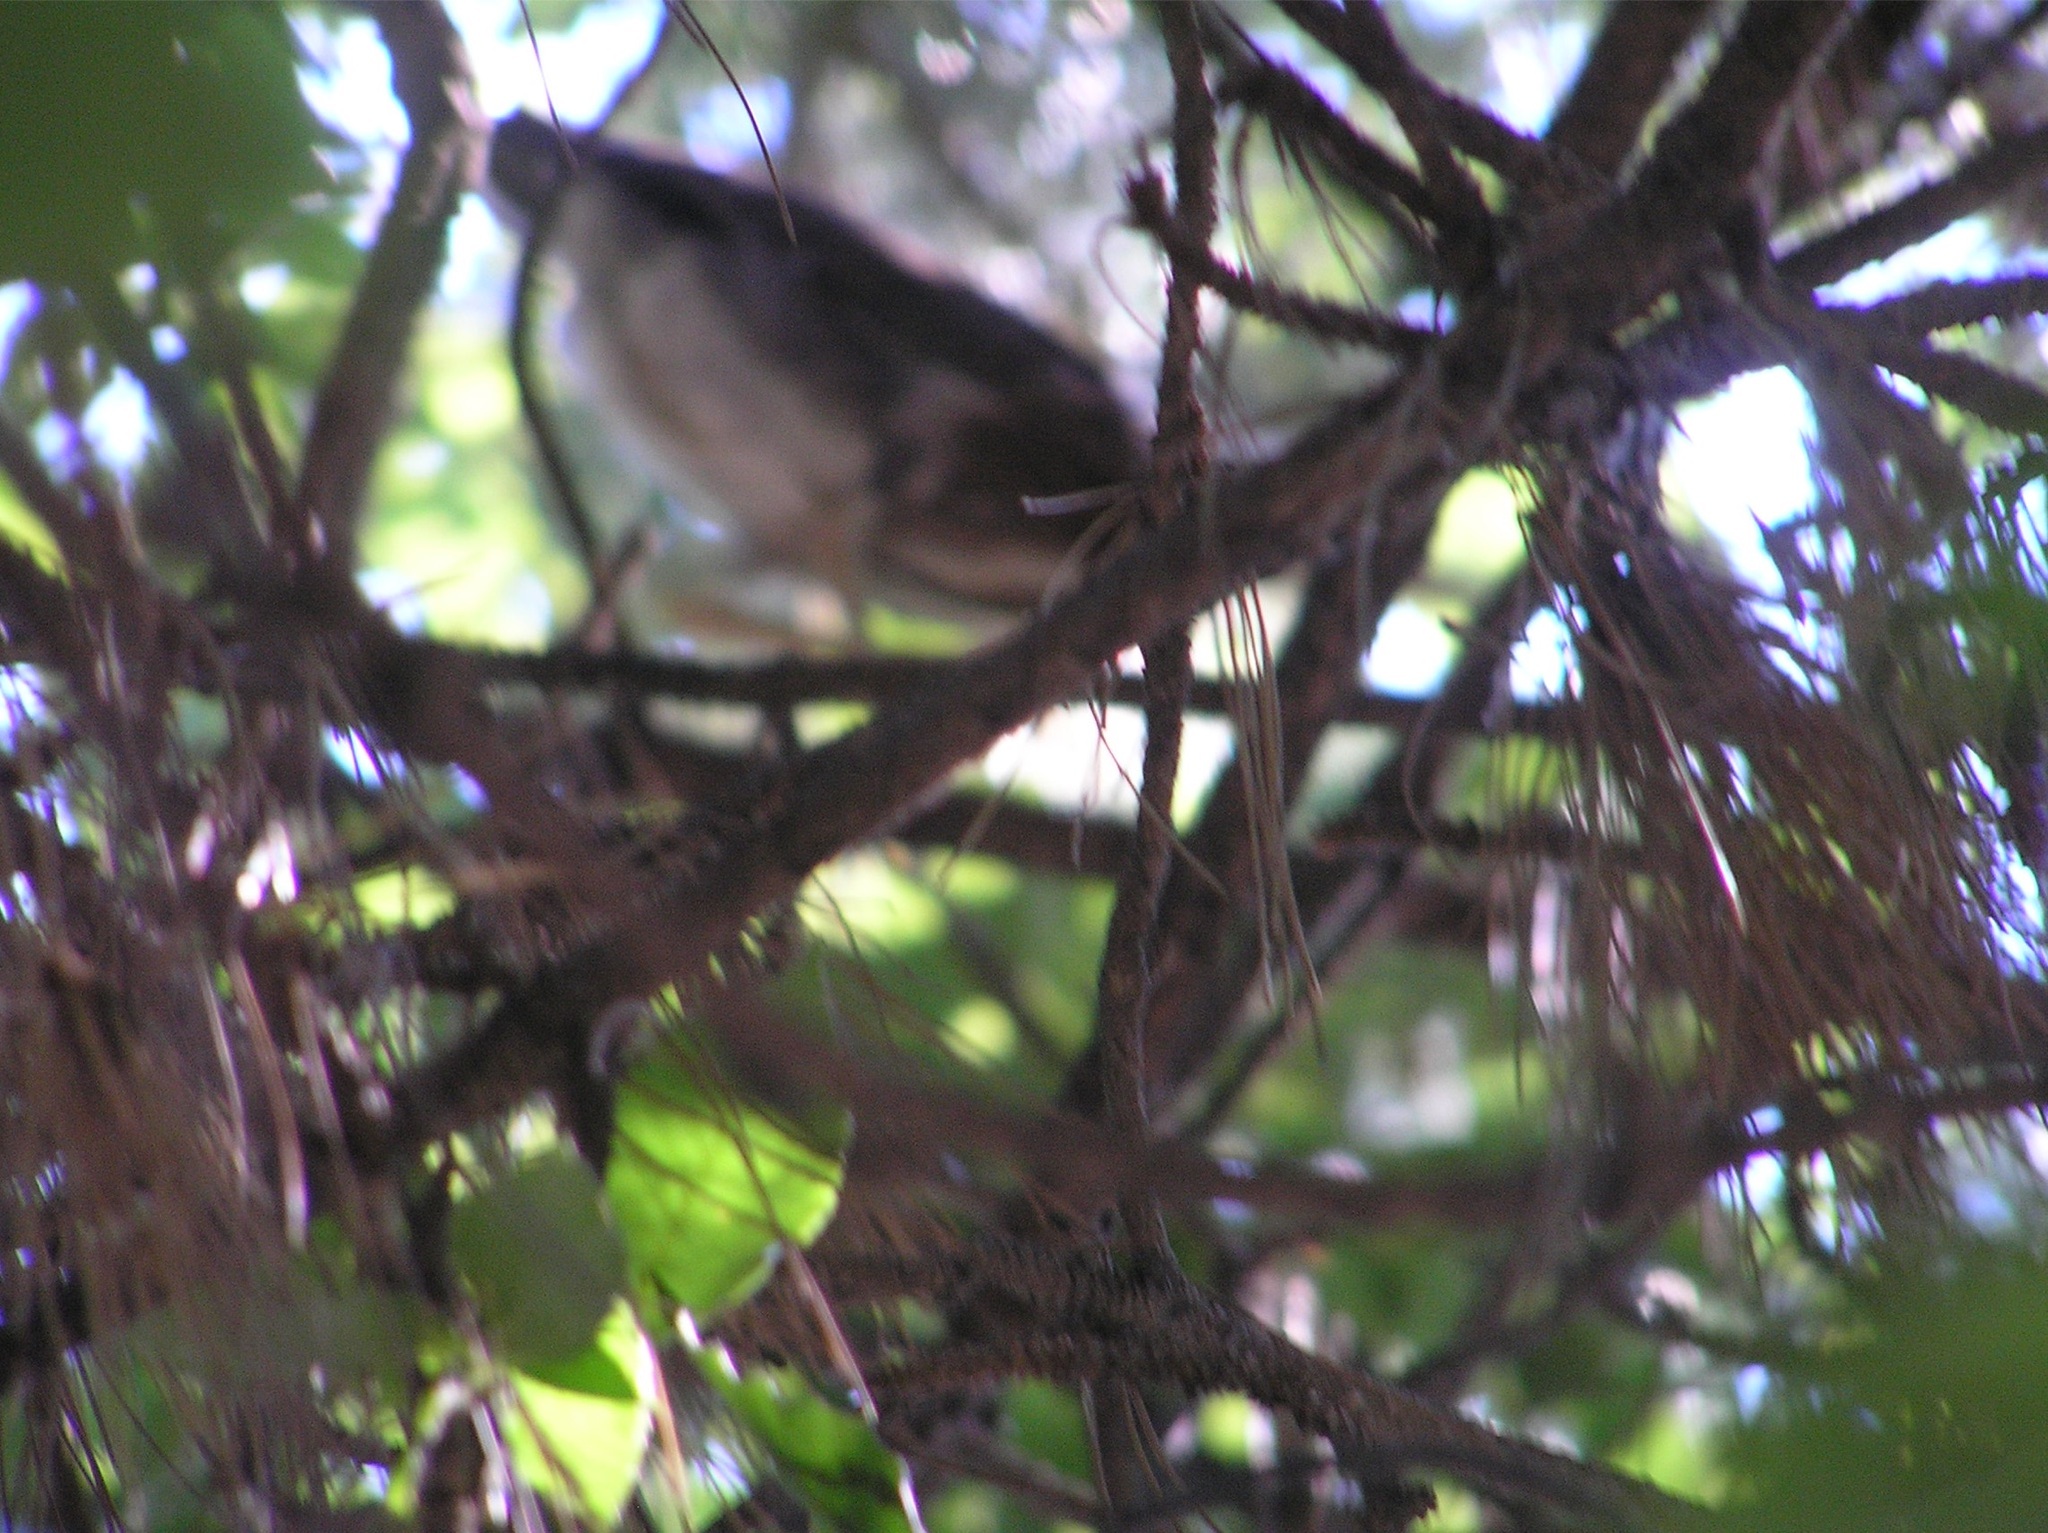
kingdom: Animalia
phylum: Chordata
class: Aves
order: Pelecaniformes
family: Ardeidae
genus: Nycticorax
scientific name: Nycticorax nycticorax
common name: Black-crowned night heron
